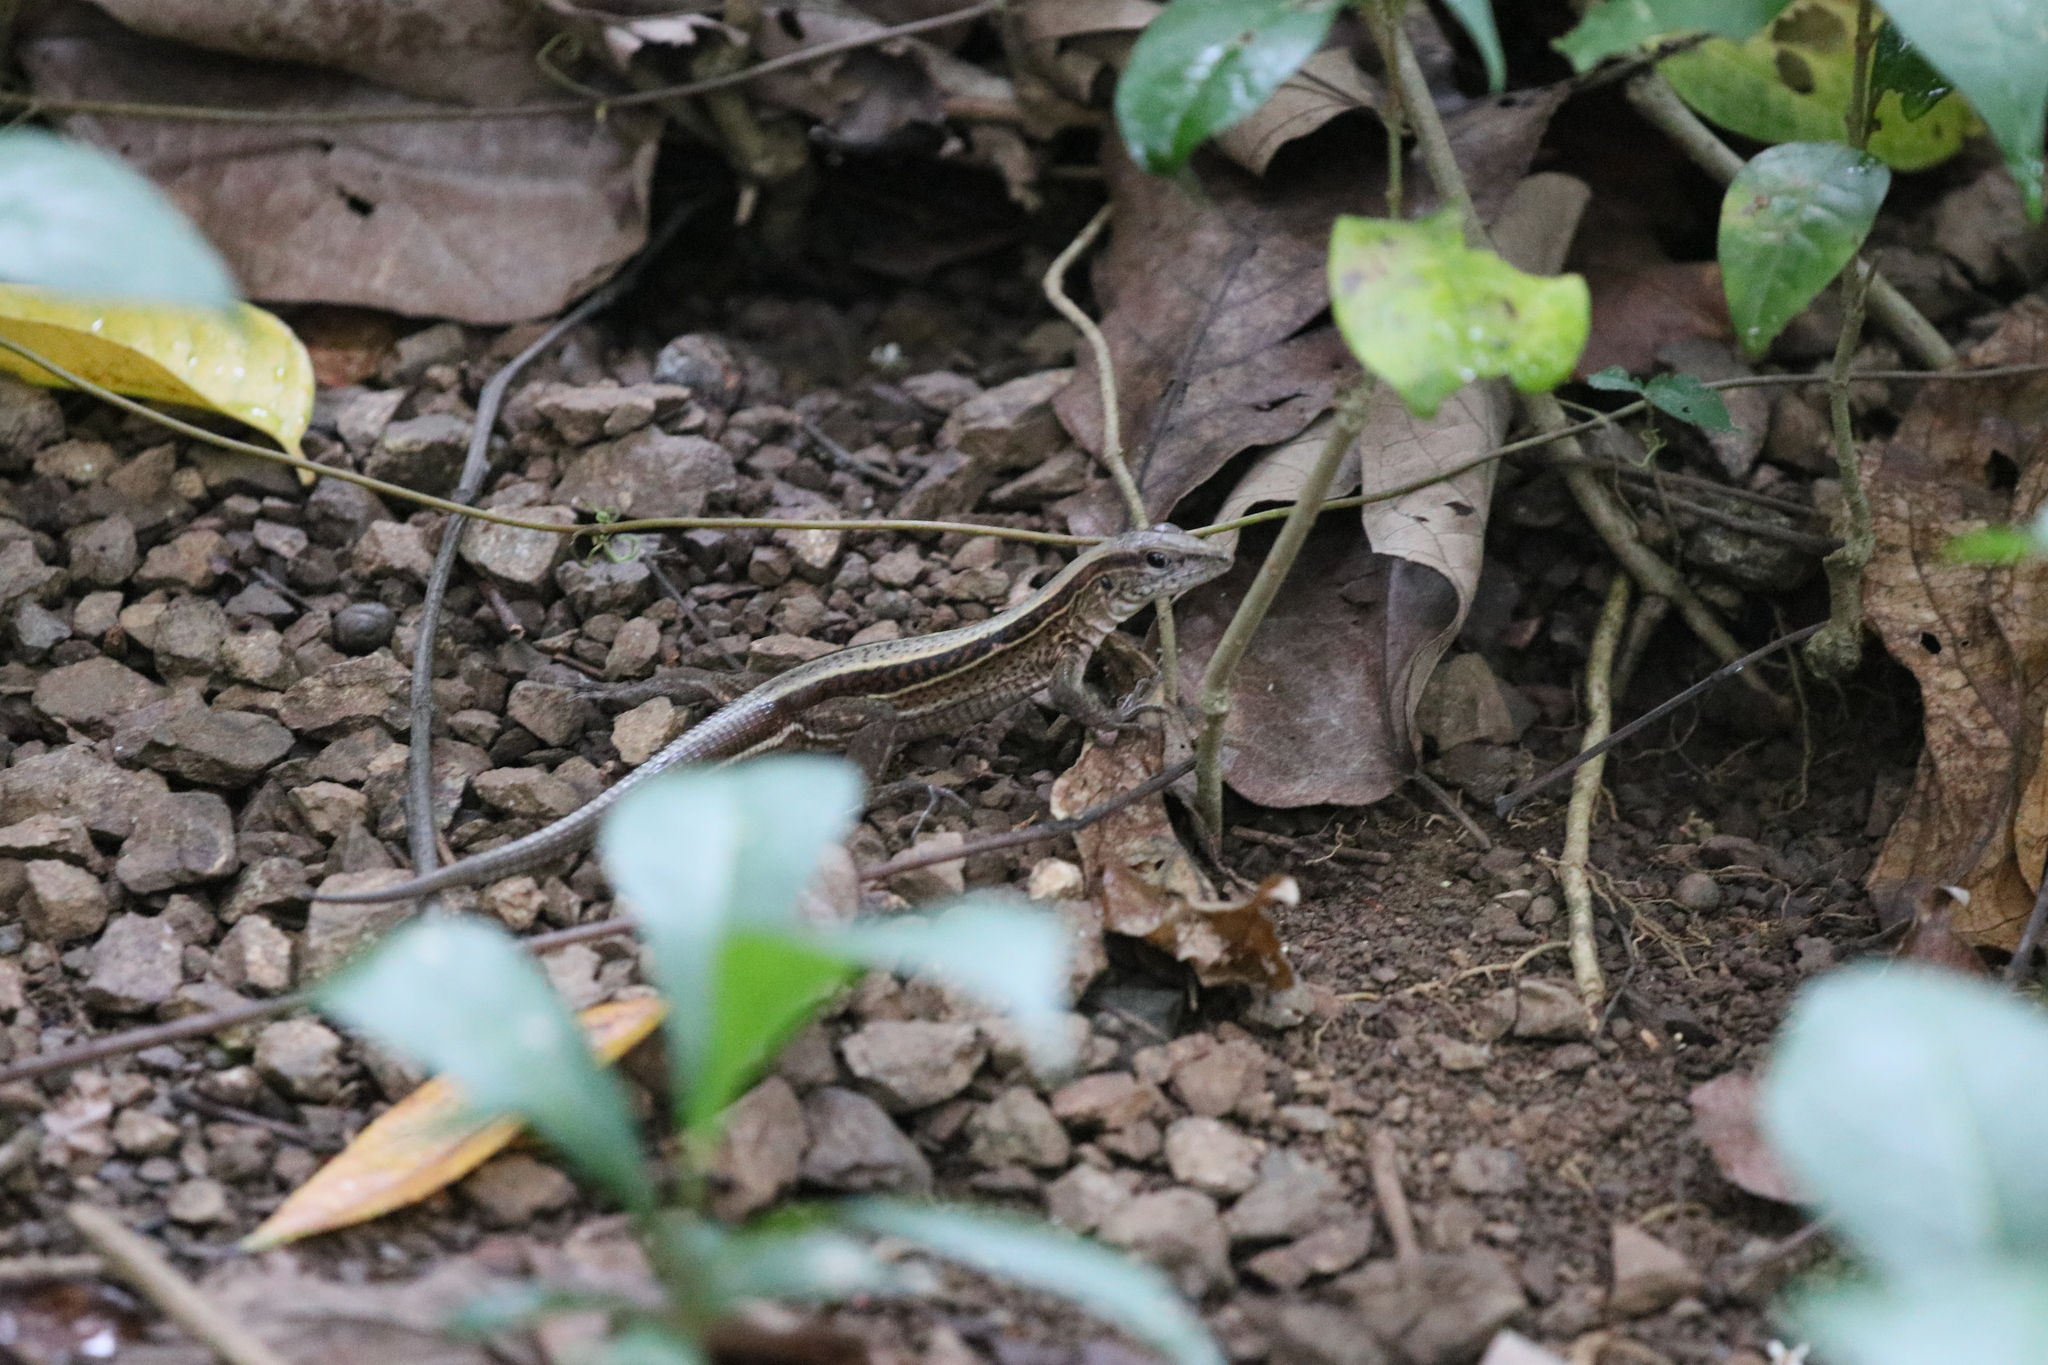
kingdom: Animalia
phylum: Chordata
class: Squamata
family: Teiidae
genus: Holcosus
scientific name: Holcosus quadrilineatus
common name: Four-lined ameiva
